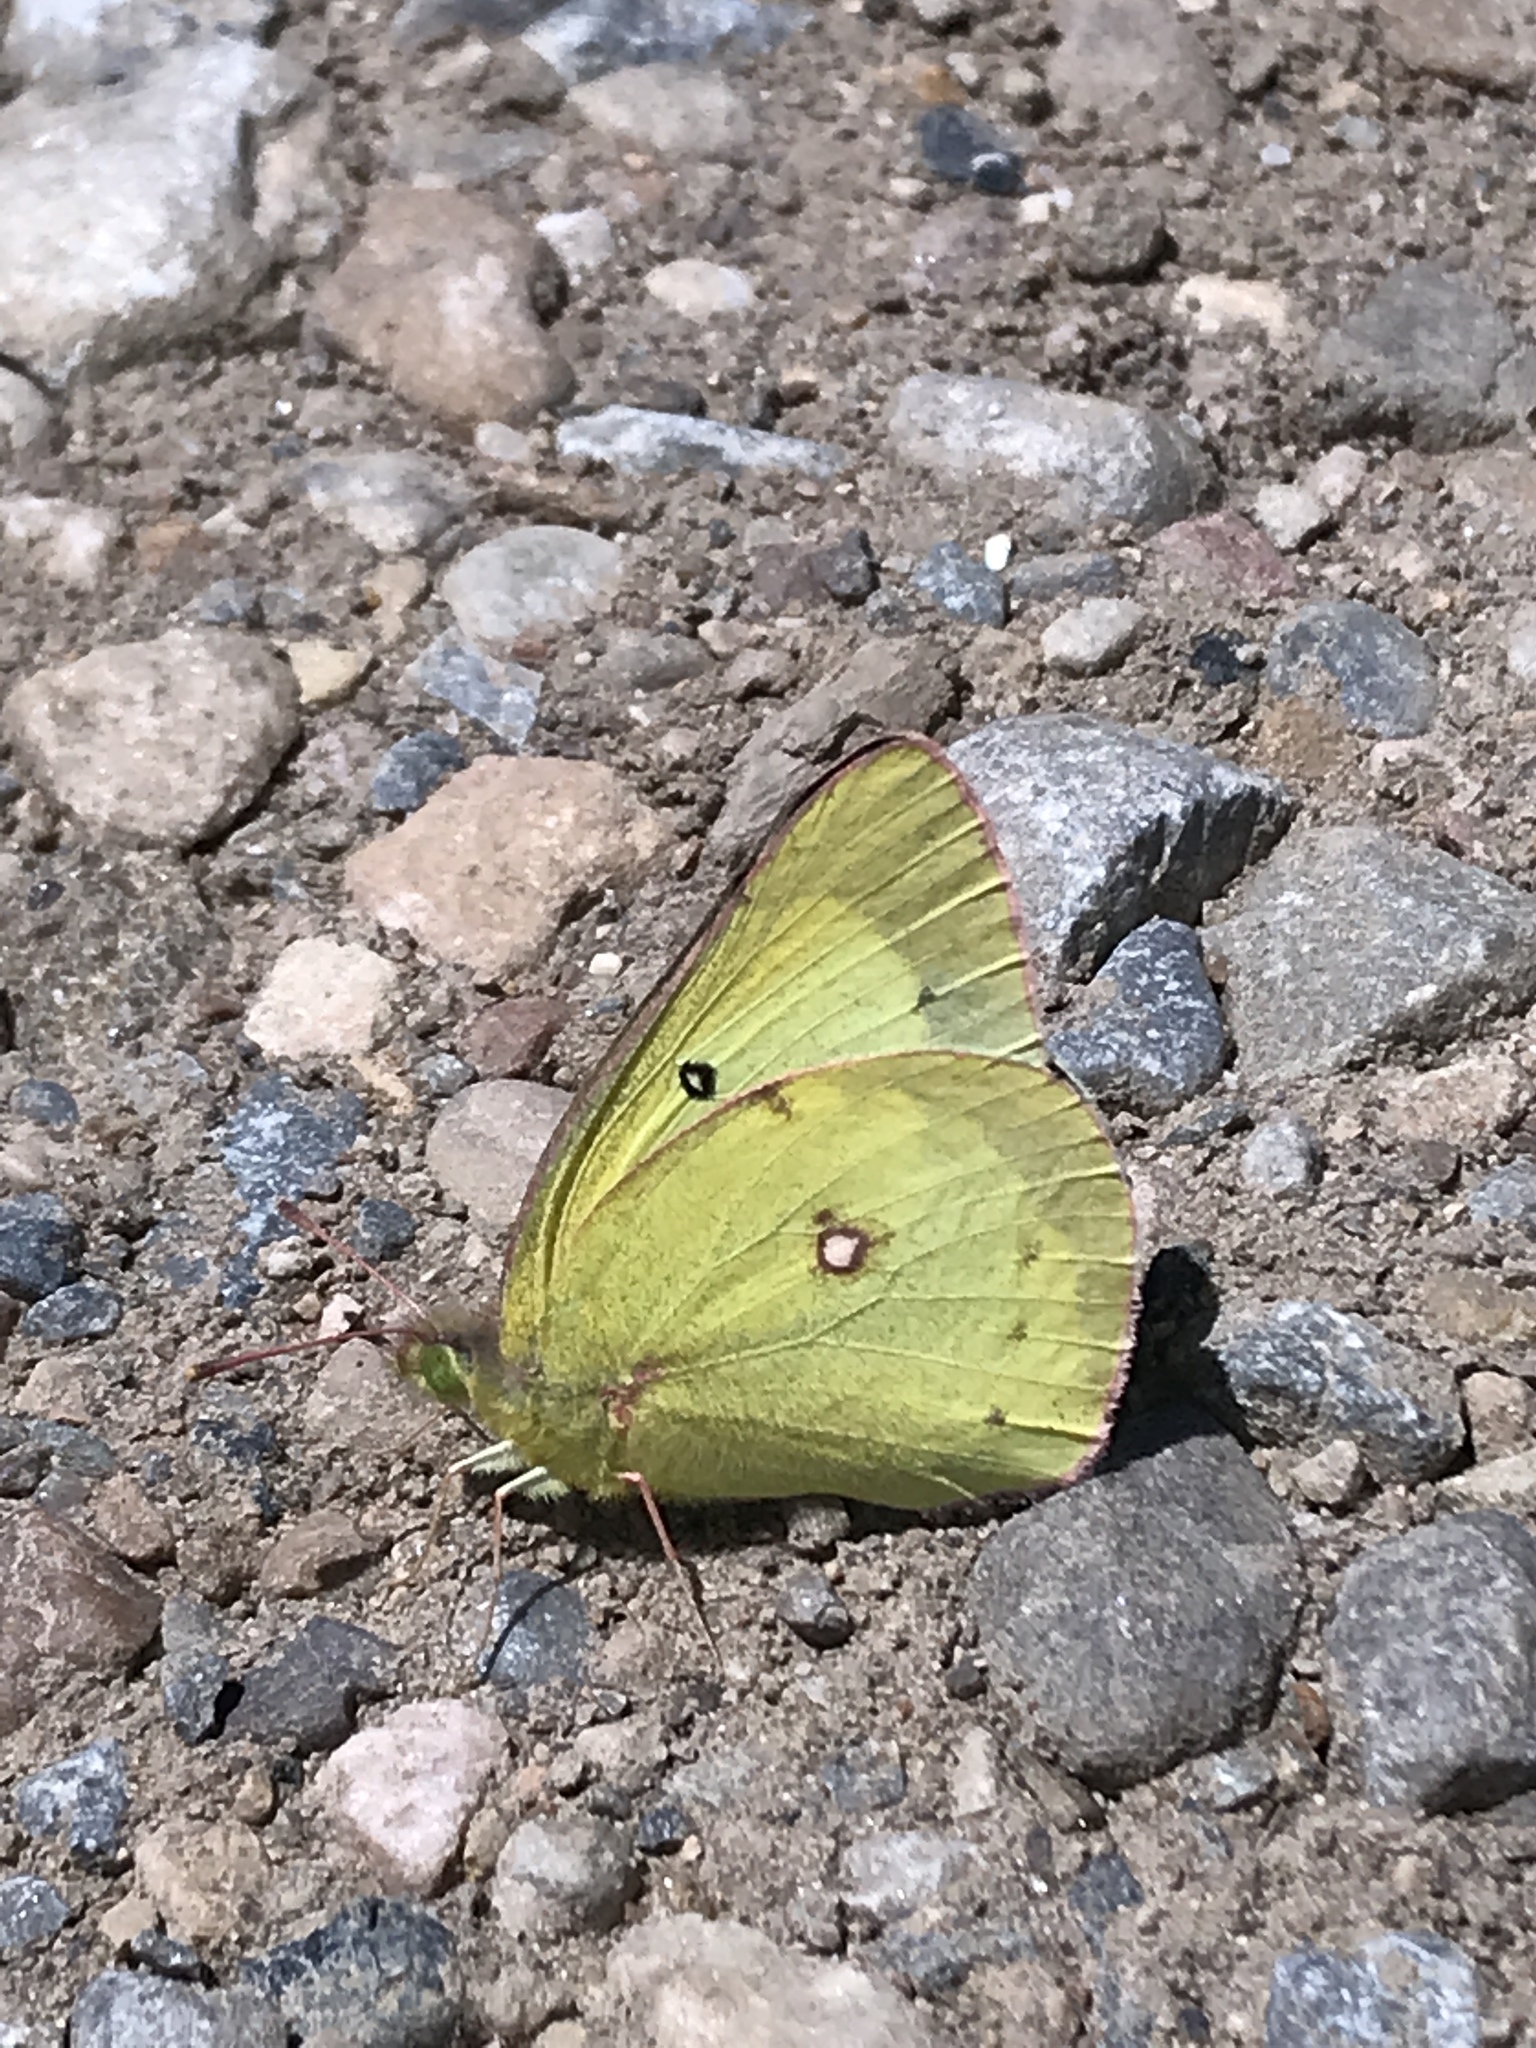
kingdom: Animalia
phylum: Arthropoda
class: Insecta
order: Lepidoptera
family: Pieridae
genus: Colias
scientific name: Colias philodice
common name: Clouded sulphur
